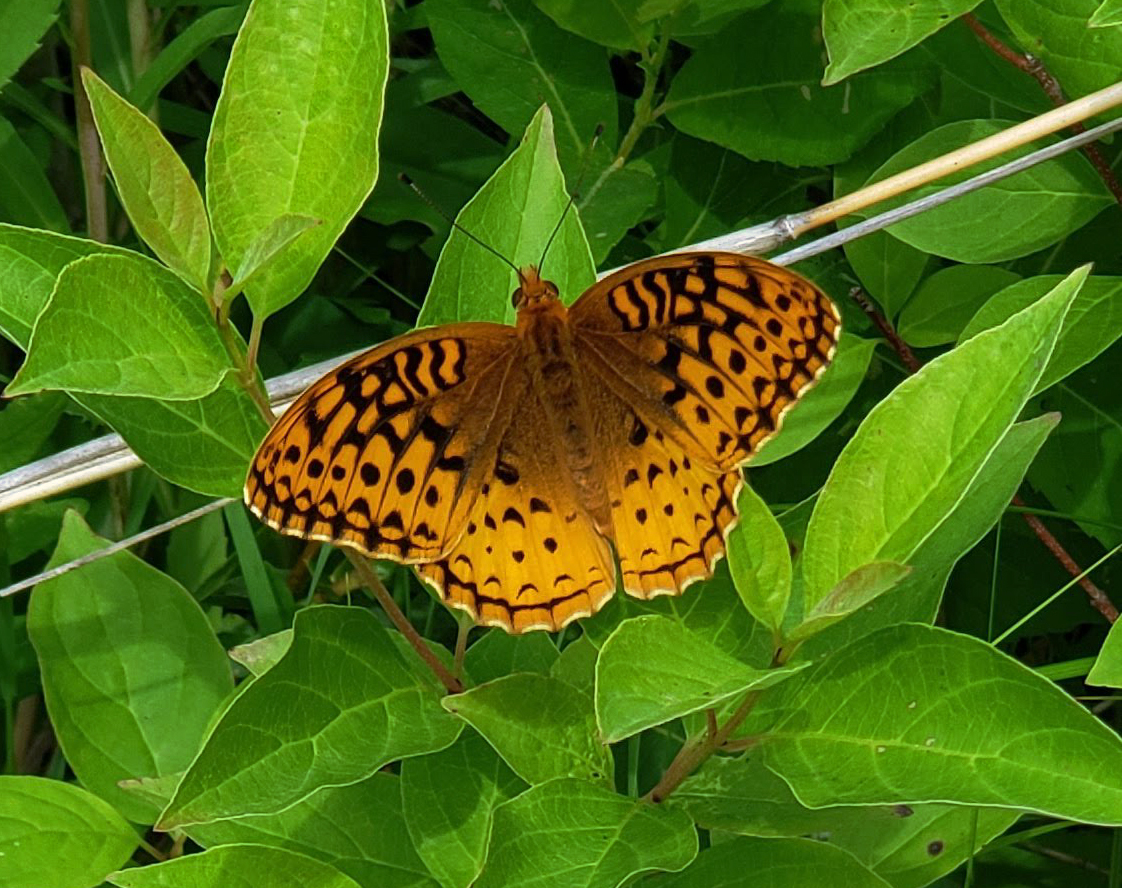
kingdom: Animalia
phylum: Arthropoda
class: Insecta
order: Lepidoptera
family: Nymphalidae
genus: Speyeria
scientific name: Speyeria cybele
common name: Great spangled fritillary
